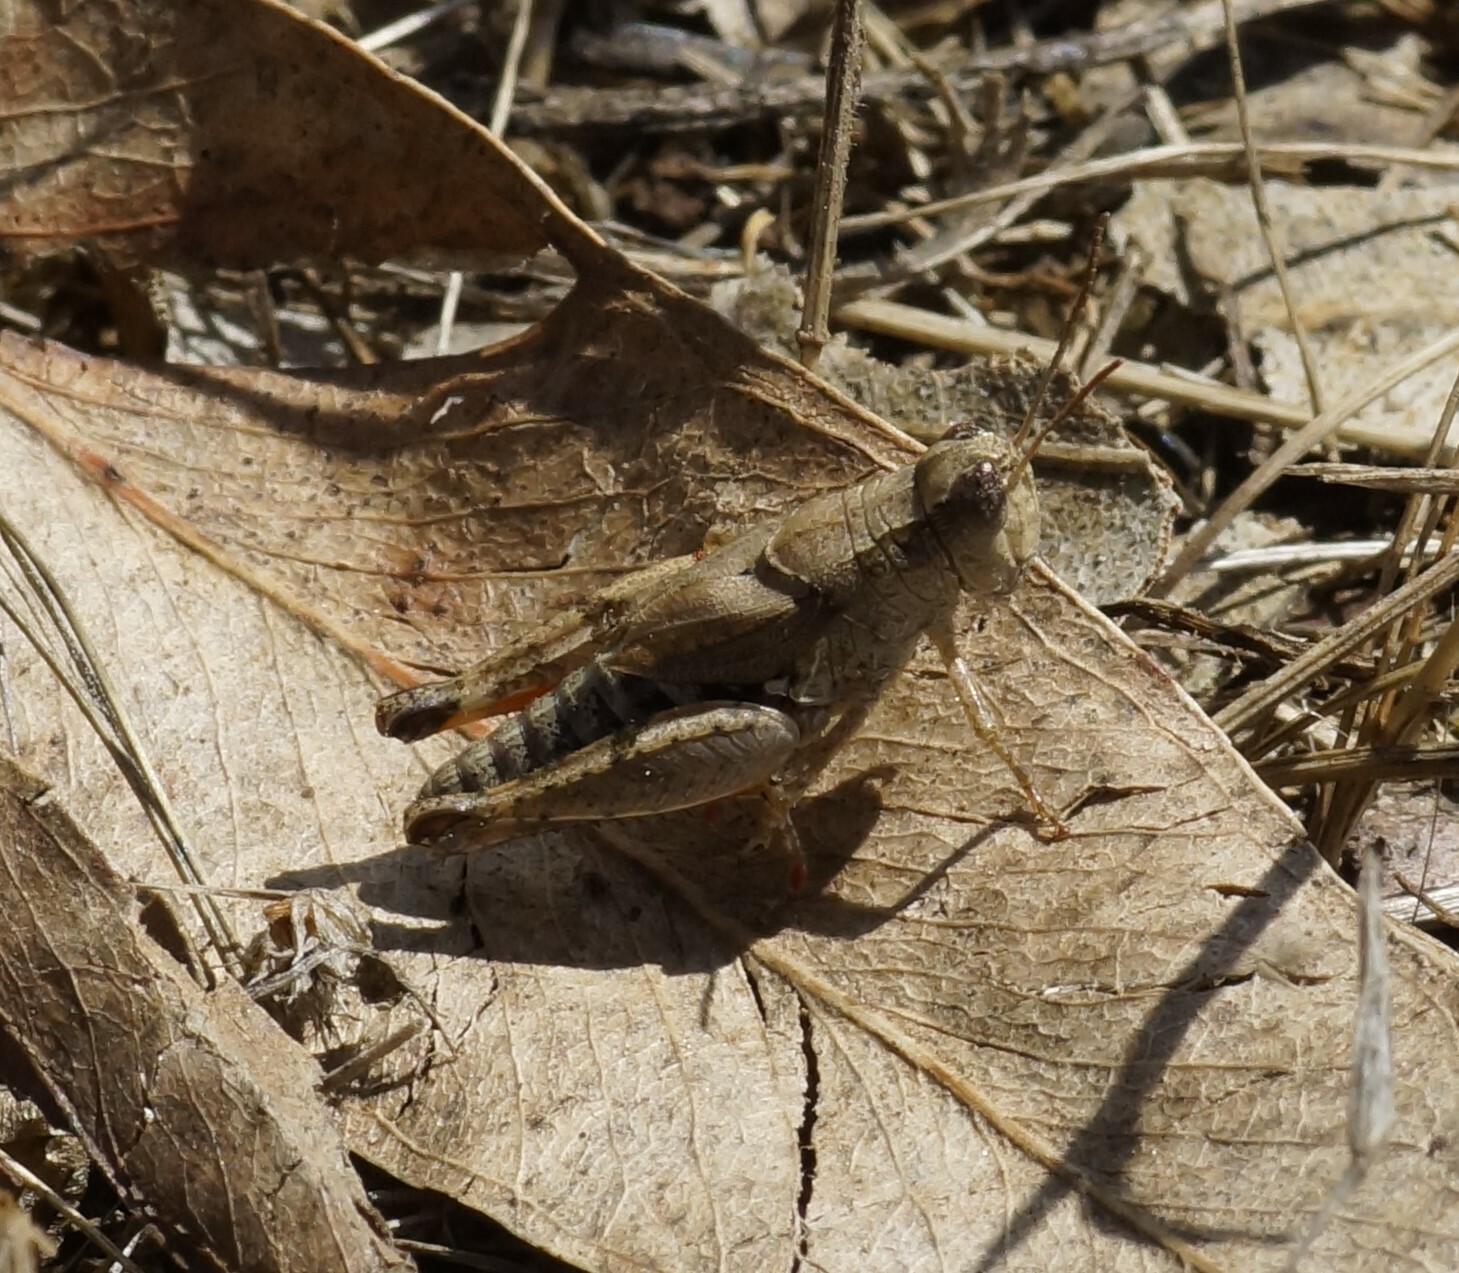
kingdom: Animalia
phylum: Arthropoda
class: Insecta
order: Orthoptera
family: Acrididae
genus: Phaulacridium
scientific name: Phaulacridium vittatum
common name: Wingless grasshopper
